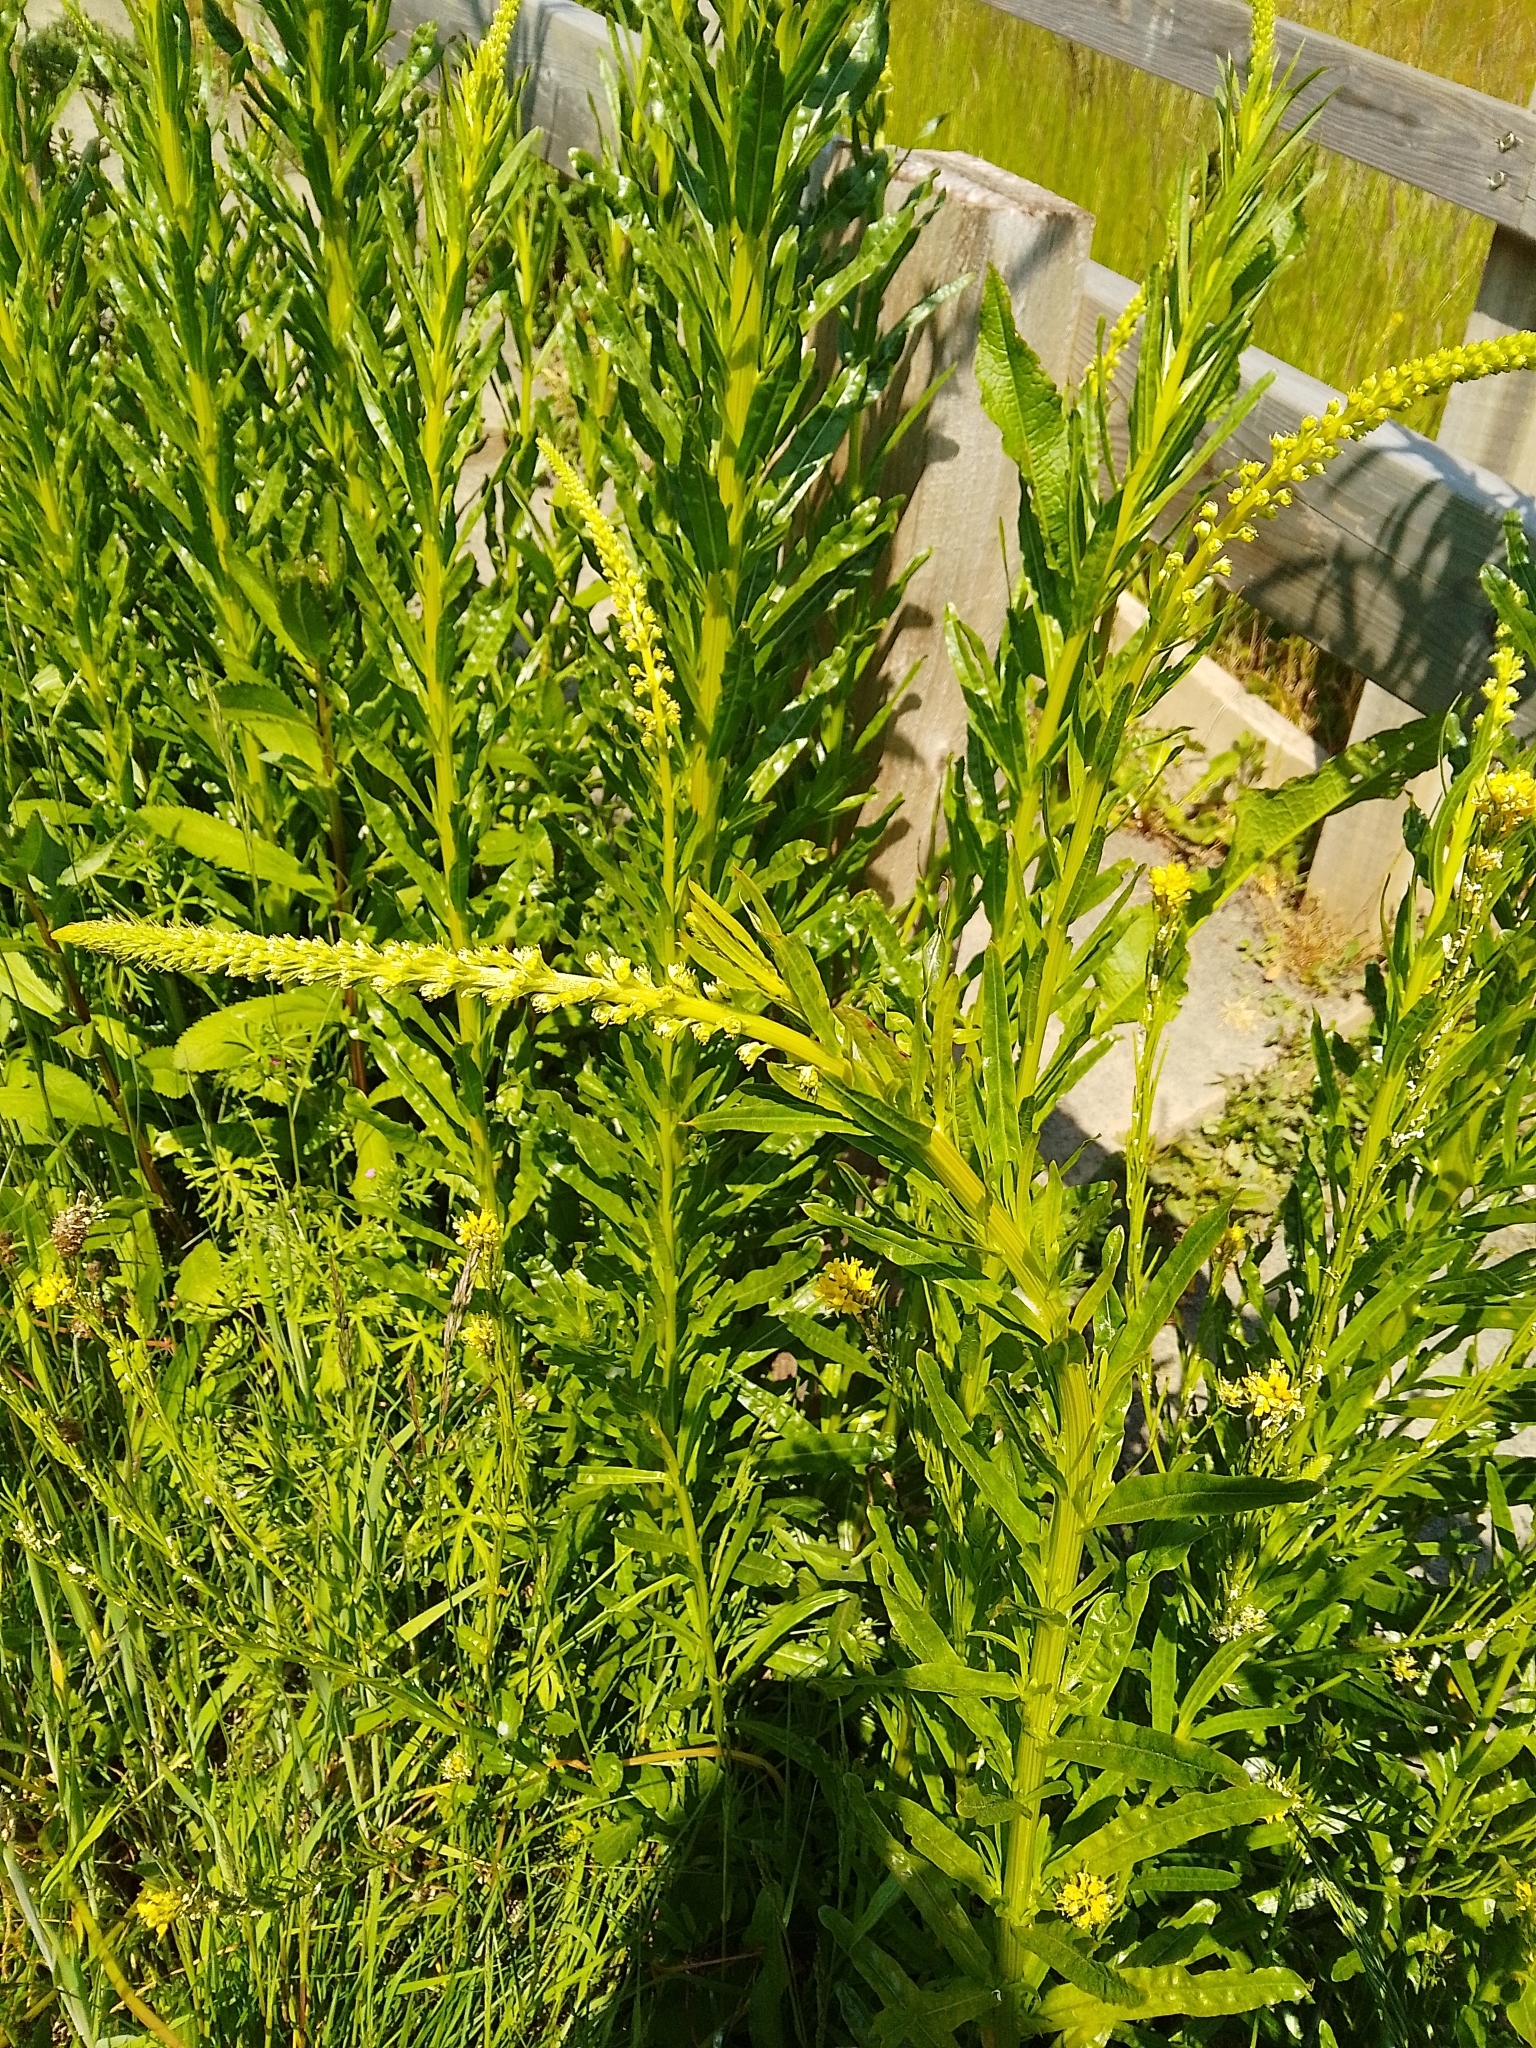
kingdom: Plantae
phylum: Tracheophyta
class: Magnoliopsida
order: Brassicales
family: Resedaceae
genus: Reseda
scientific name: Reseda luteola
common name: Weld
